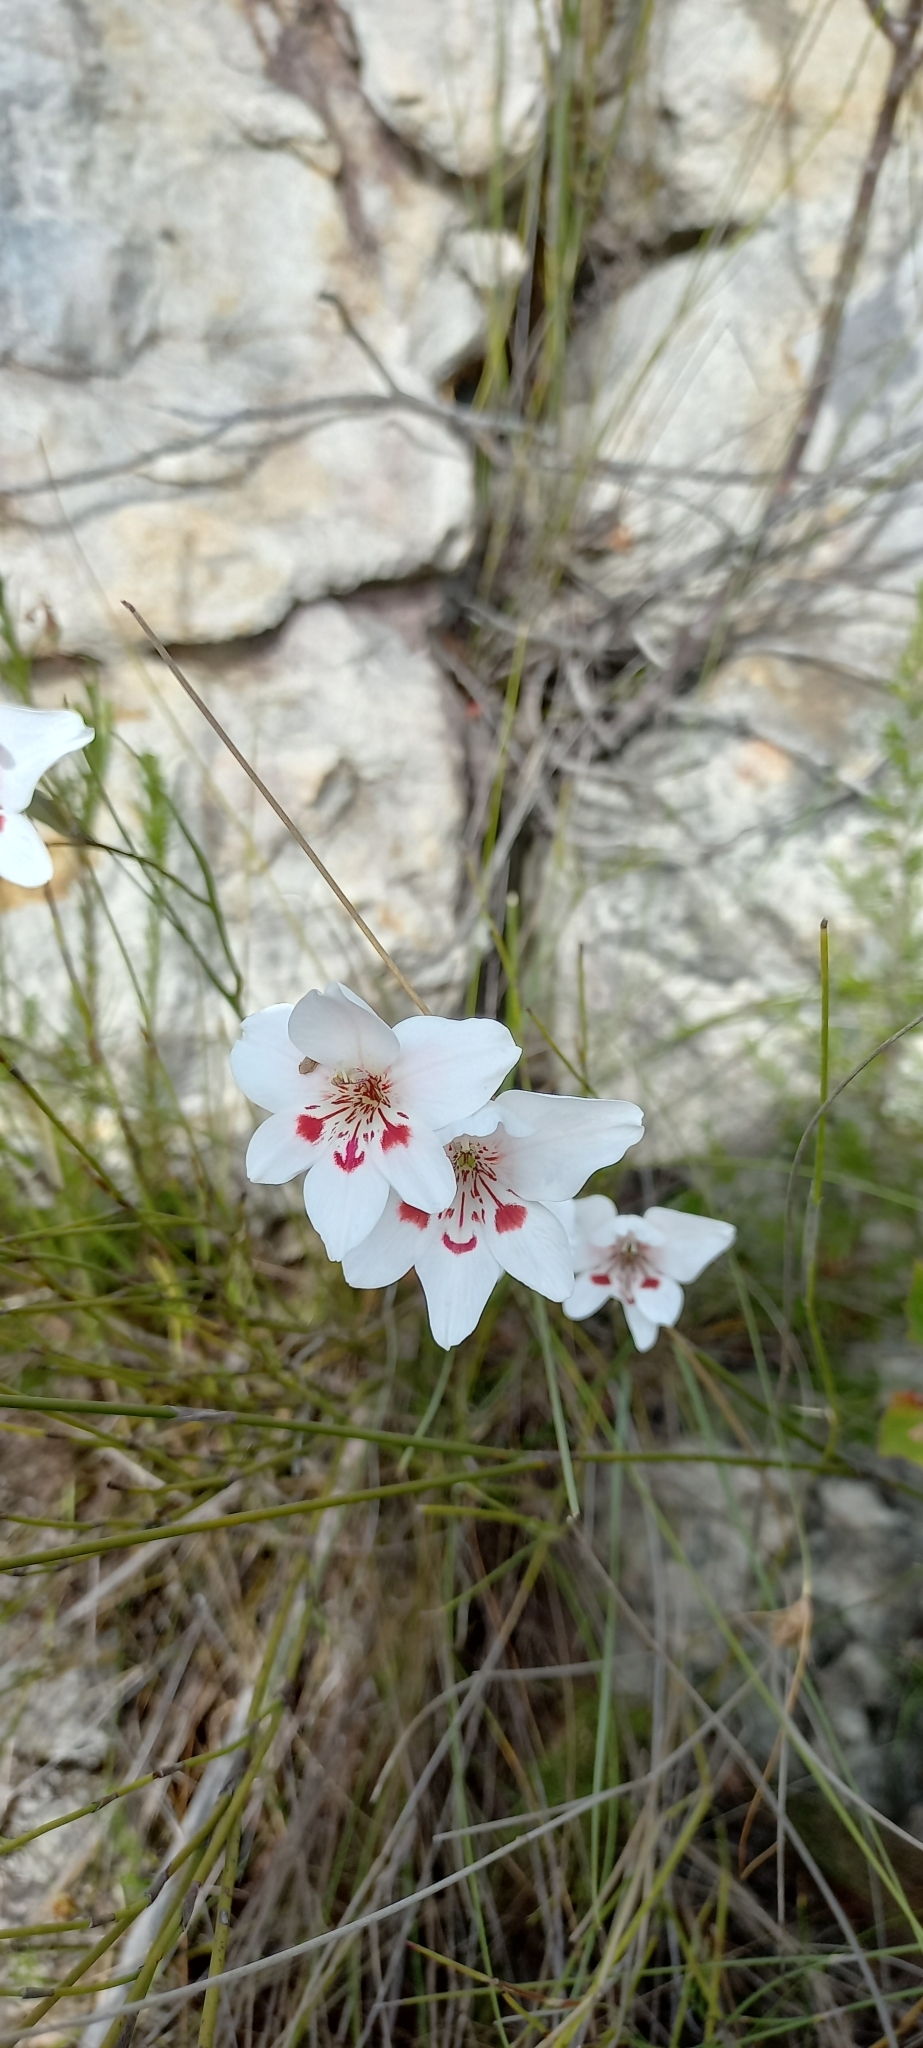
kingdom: Plantae
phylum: Tracheophyta
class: Liliopsida
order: Asparagales
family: Iridaceae
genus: Gladiolus
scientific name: Gladiolus debilis
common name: Painted-lady
